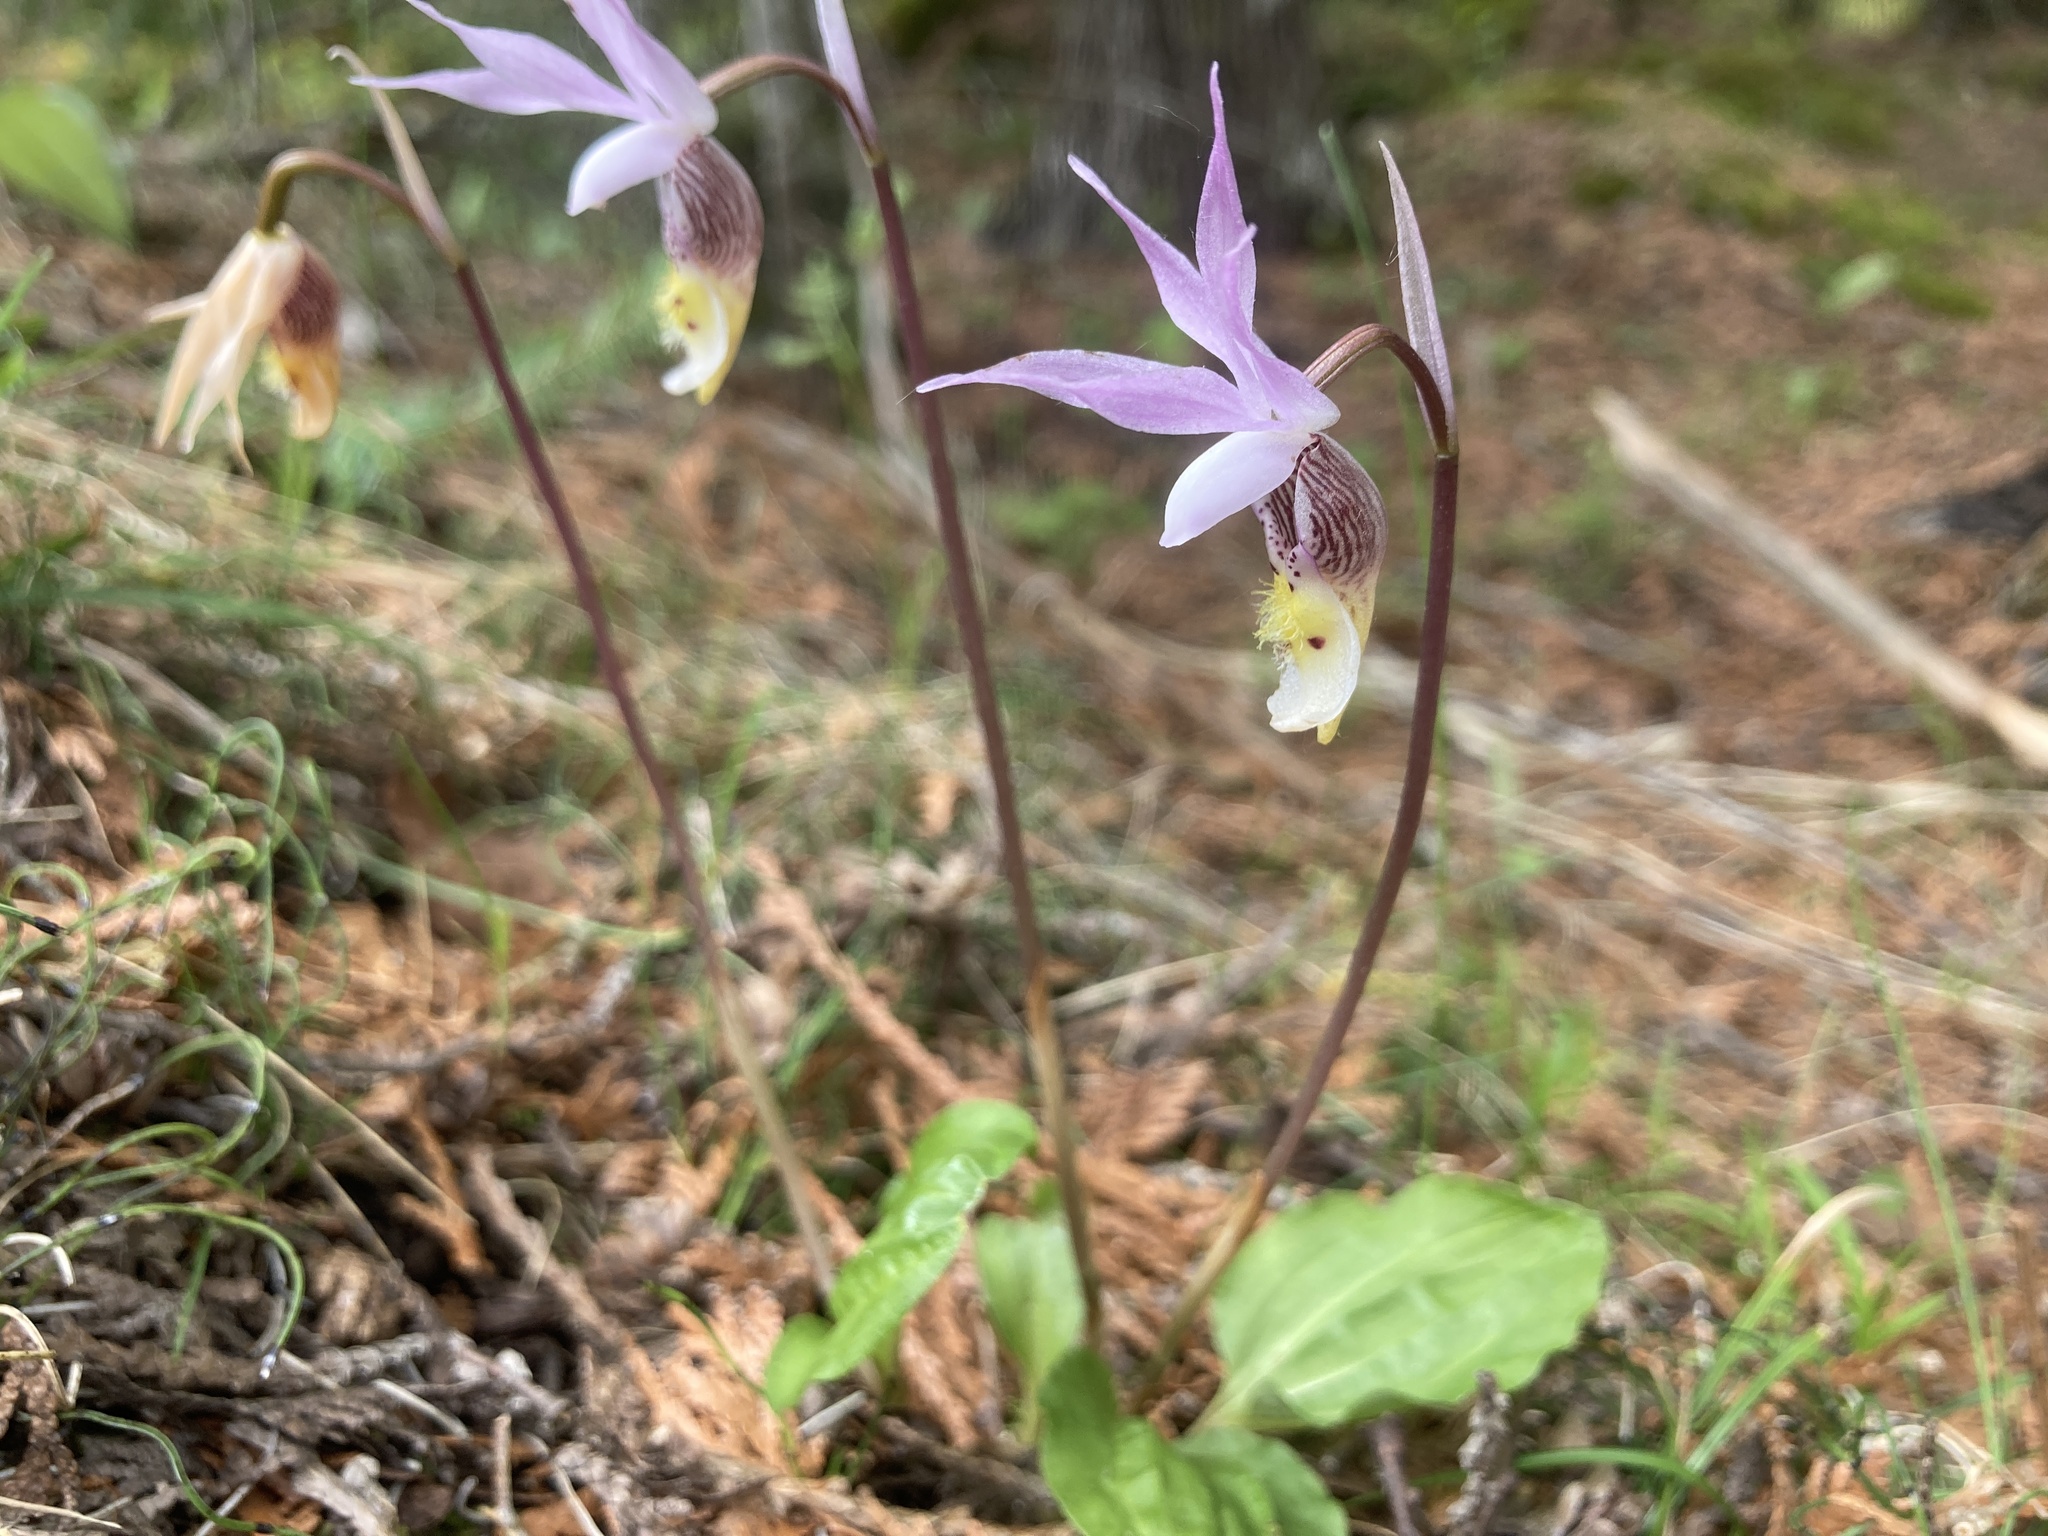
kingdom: Plantae
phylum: Tracheophyta
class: Liliopsida
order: Asparagales
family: Orchidaceae
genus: Calypso
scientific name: Calypso bulbosa
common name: Calypso
